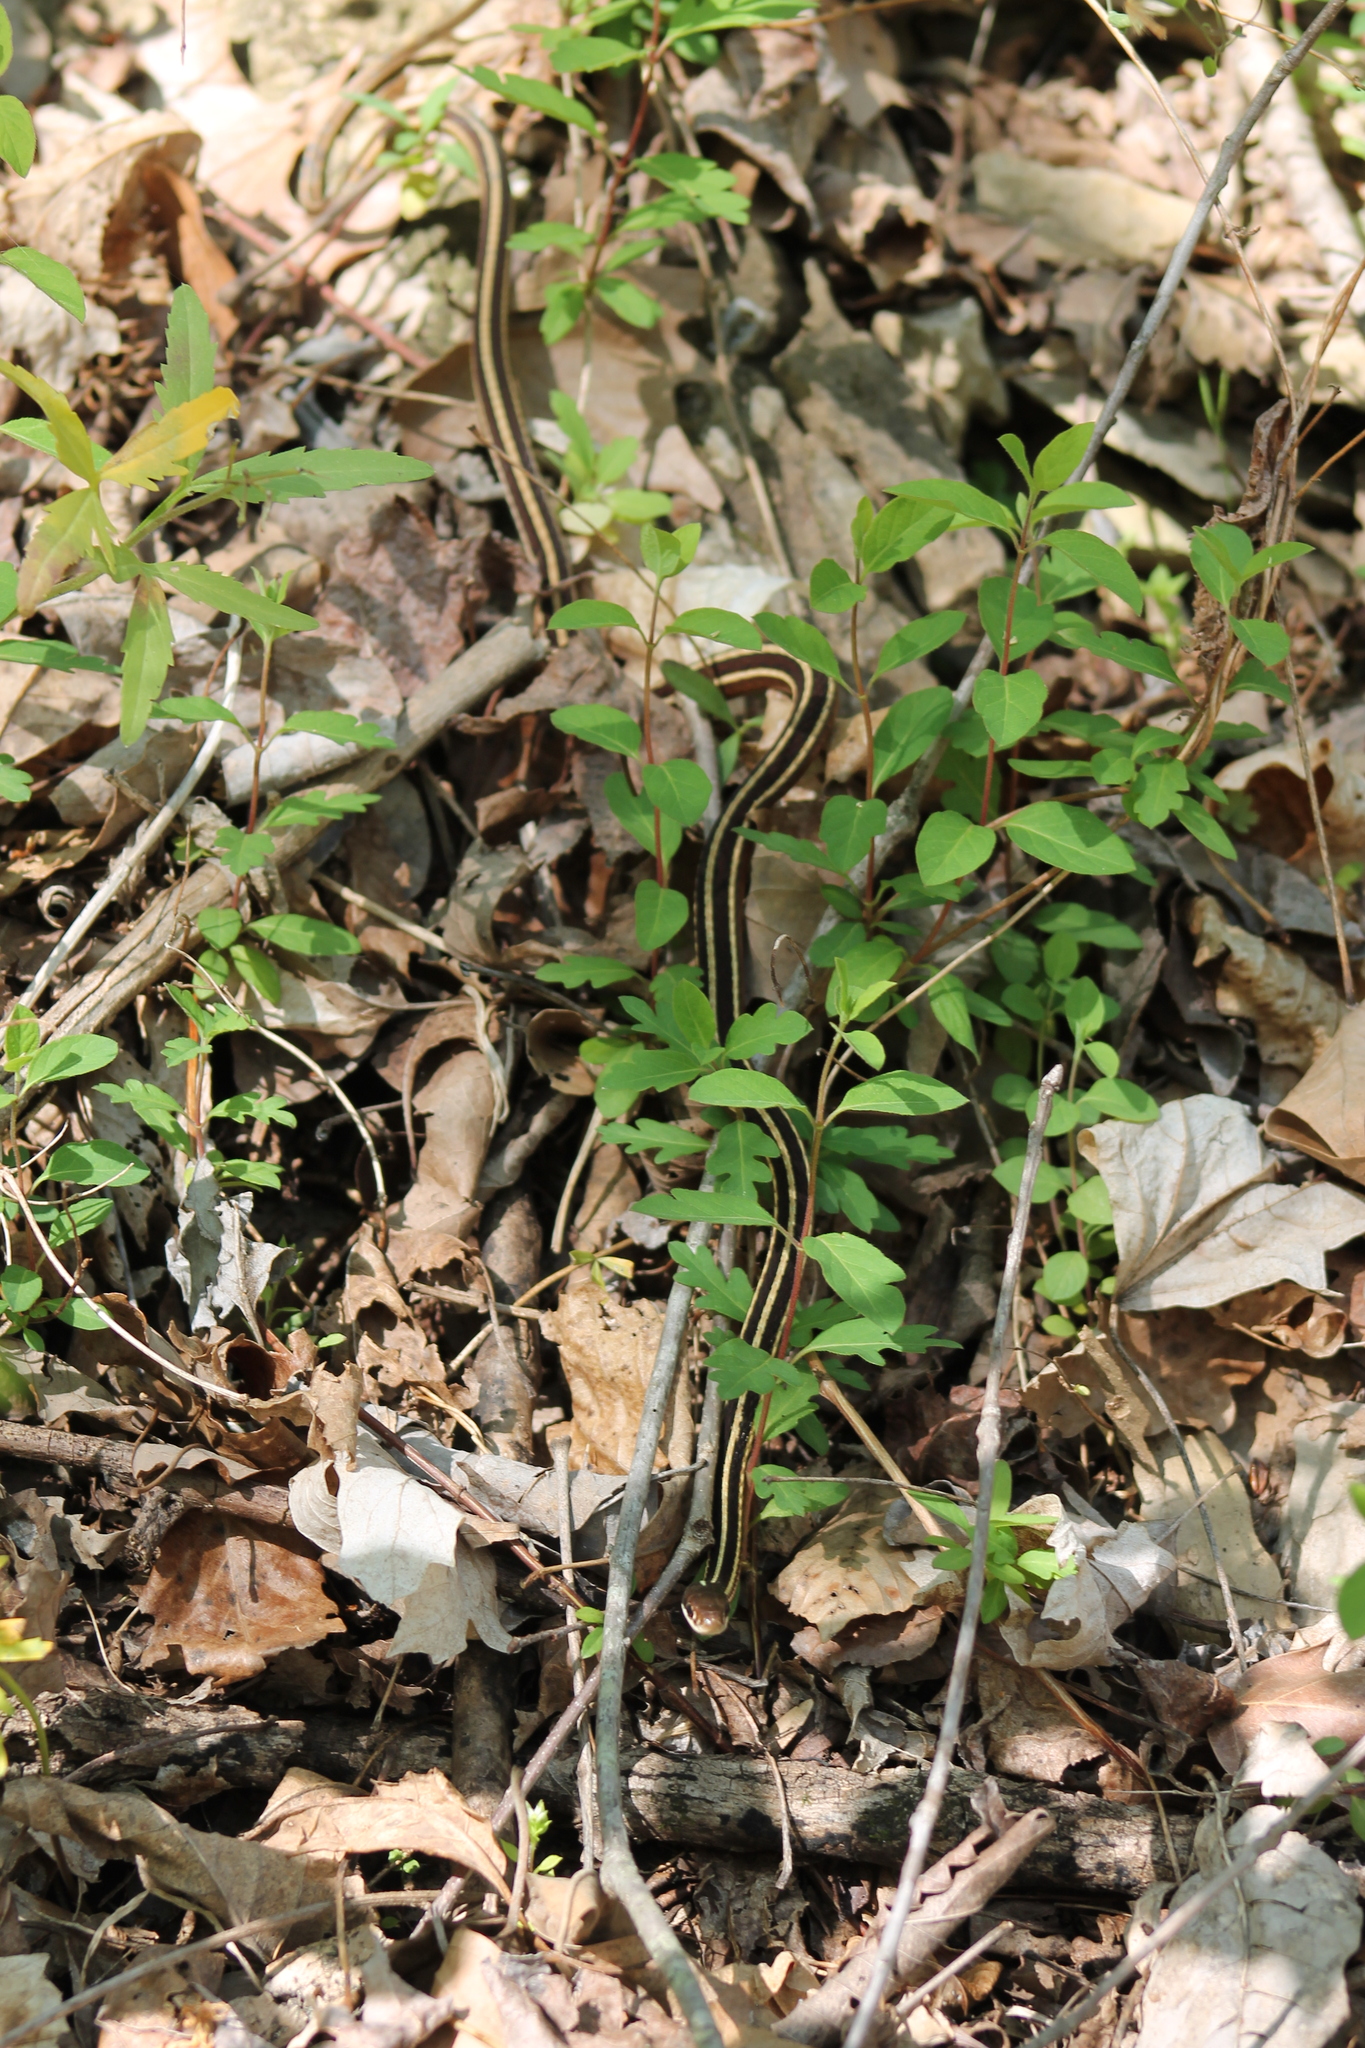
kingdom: Animalia
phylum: Chordata
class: Squamata
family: Colubridae
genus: Thamnophis
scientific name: Thamnophis saurita
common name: Eastern ribbonsnake
